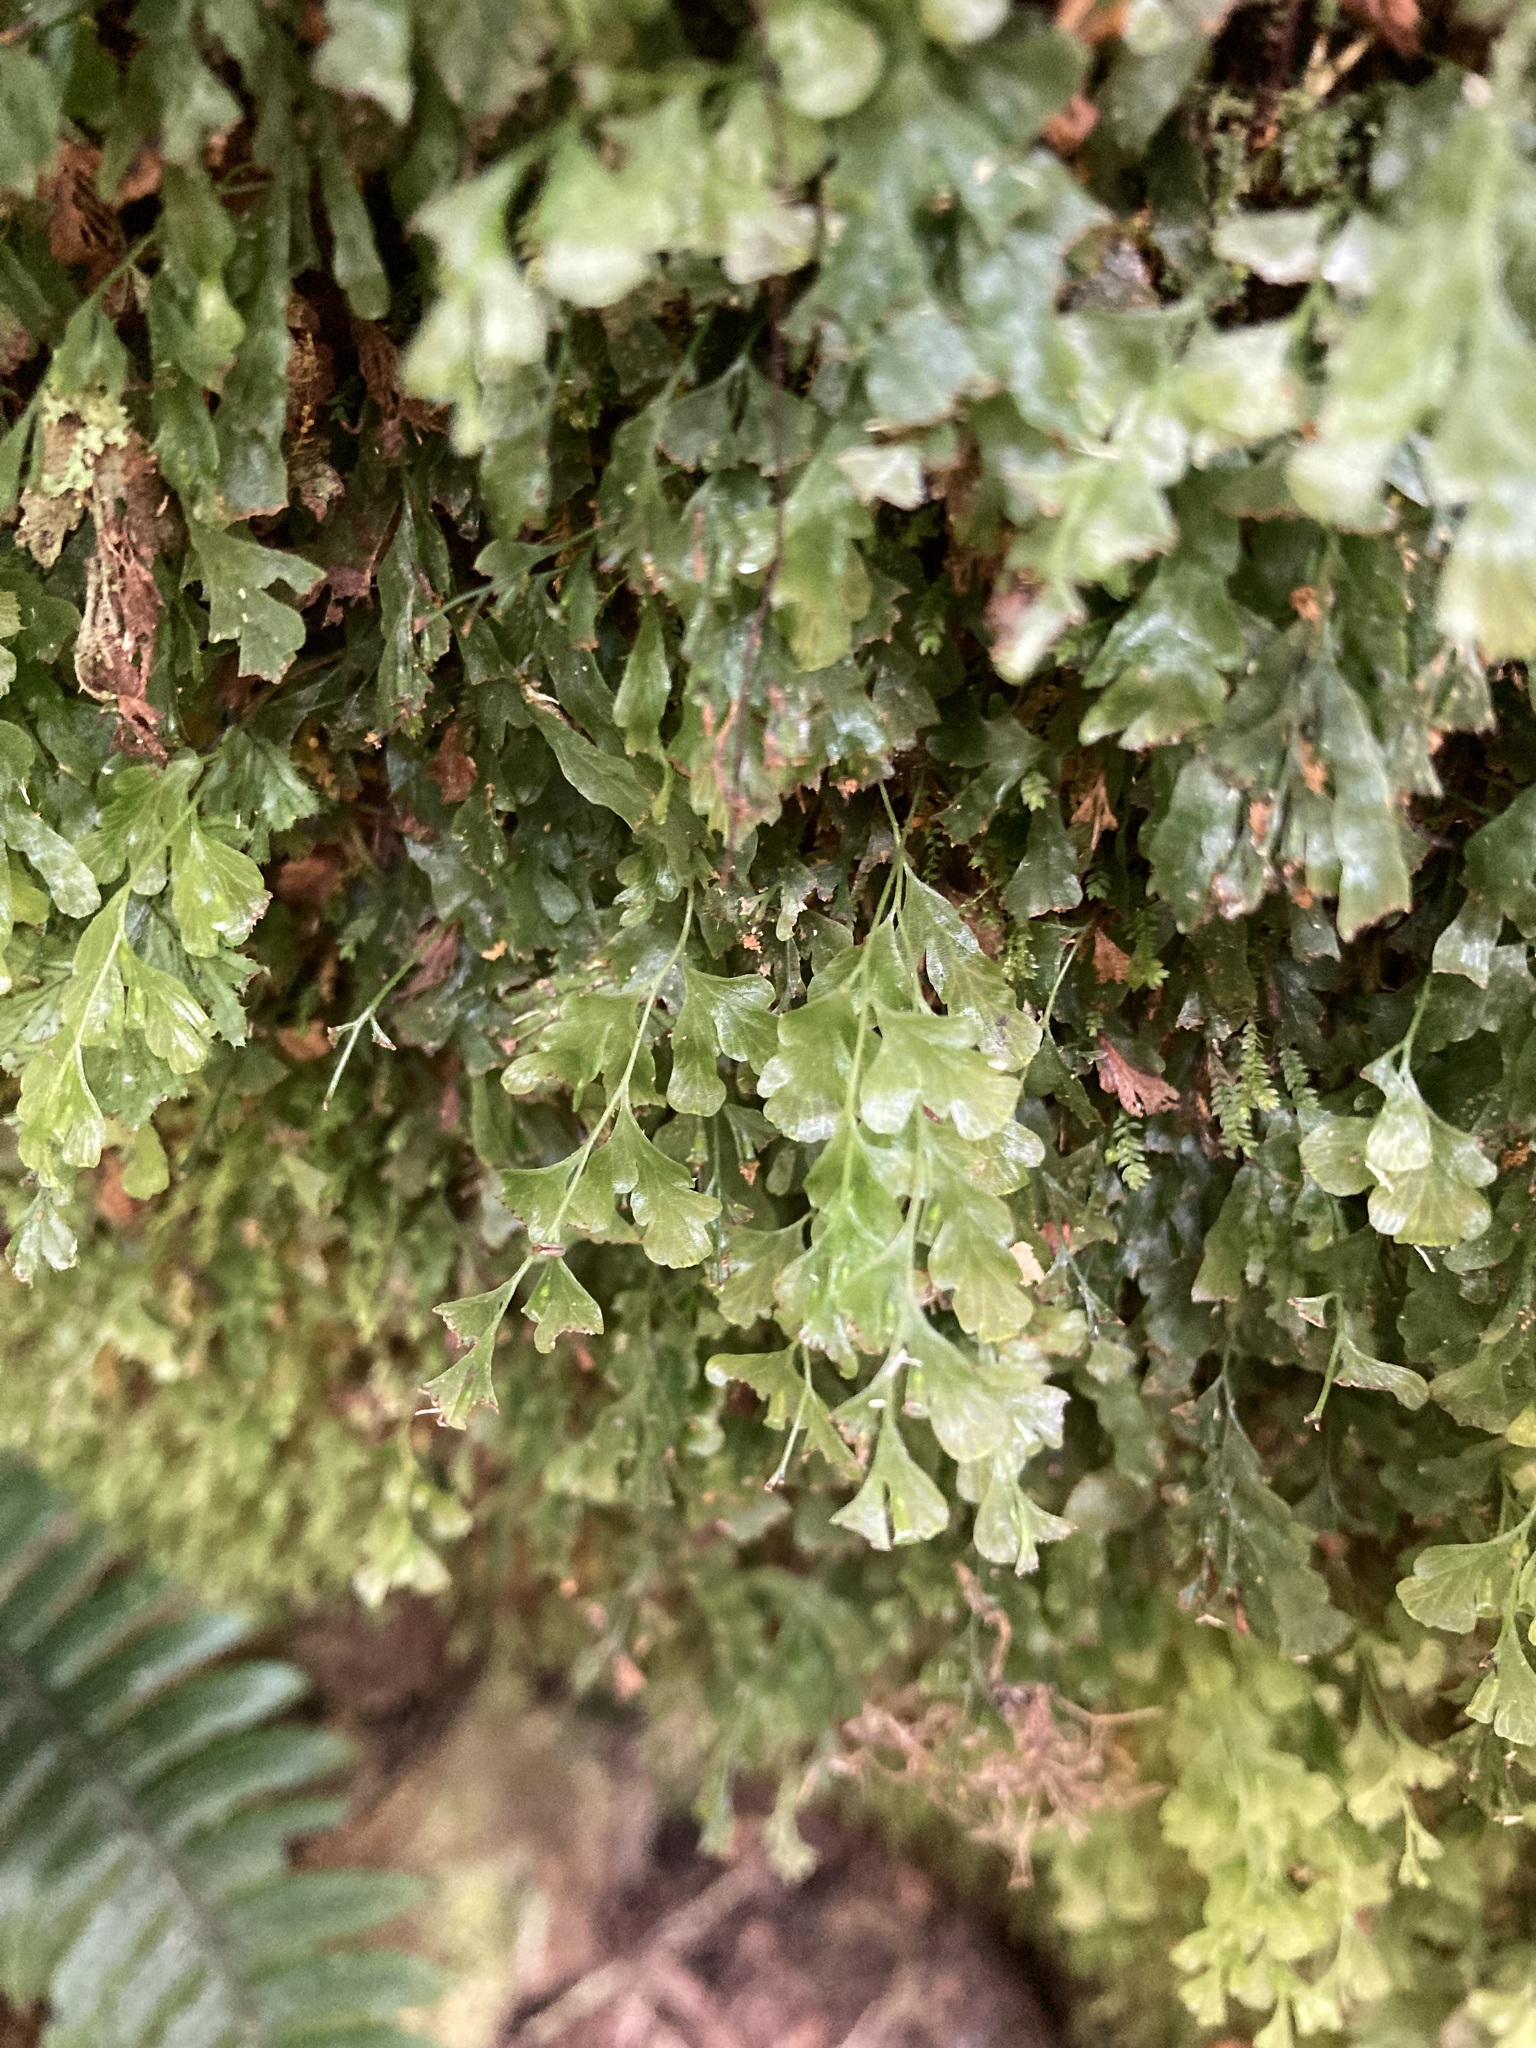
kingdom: Plantae
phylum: Tracheophyta
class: Polypodiopsida
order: Hymenophyllales
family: Hymenophyllaceae
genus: Polyphlebium
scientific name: Polyphlebium venosum
